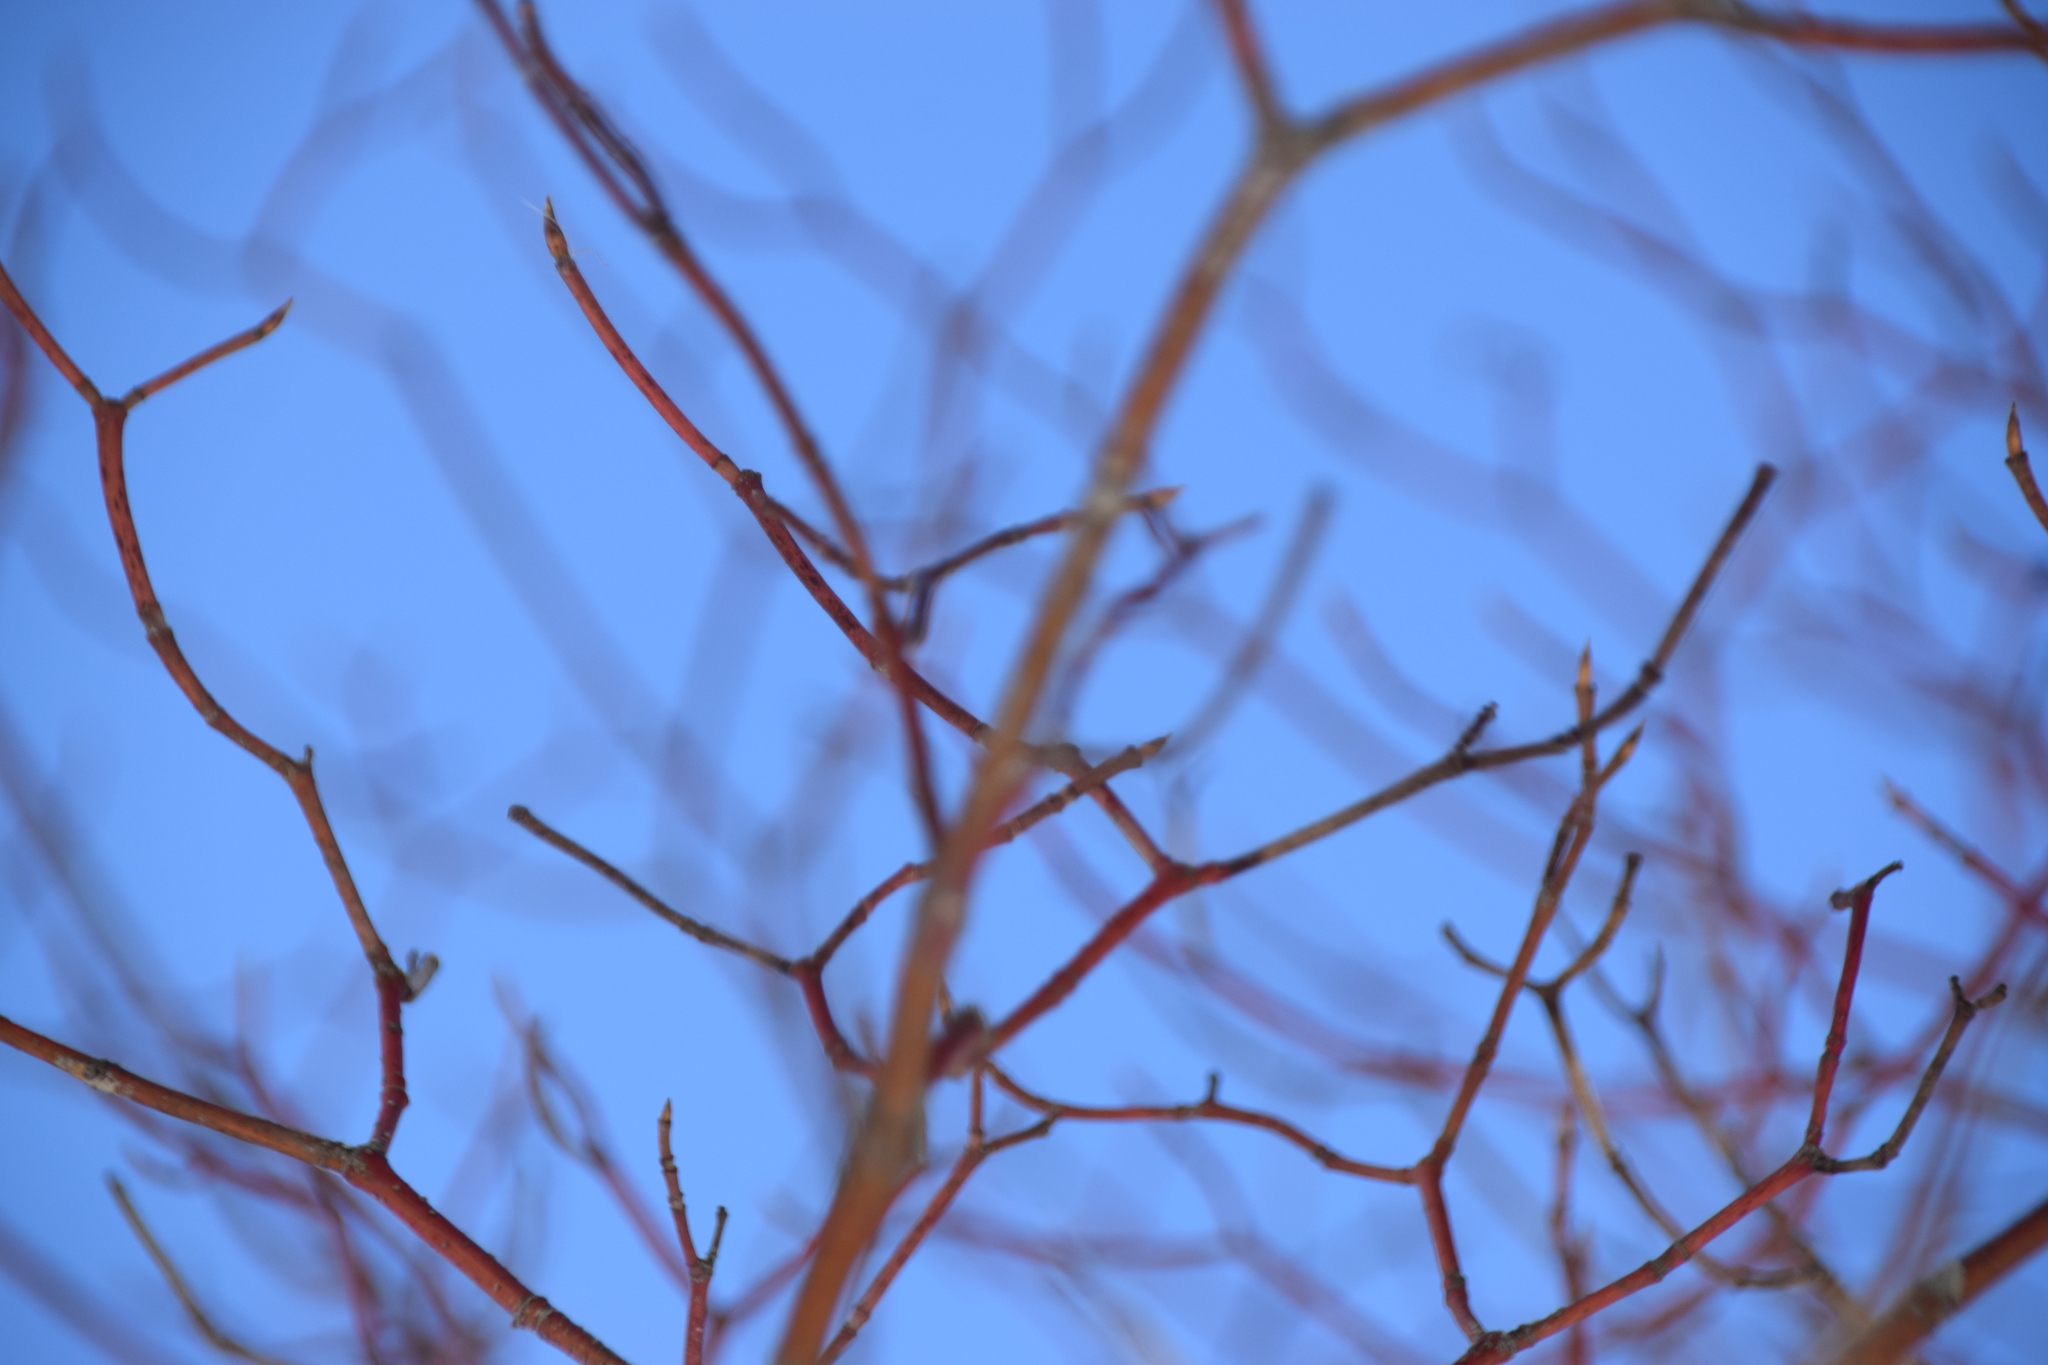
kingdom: Plantae
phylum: Tracheophyta
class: Magnoliopsida
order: Cornales
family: Cornaceae
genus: Cornus
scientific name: Cornus alternifolia
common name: Pagoda dogwood
